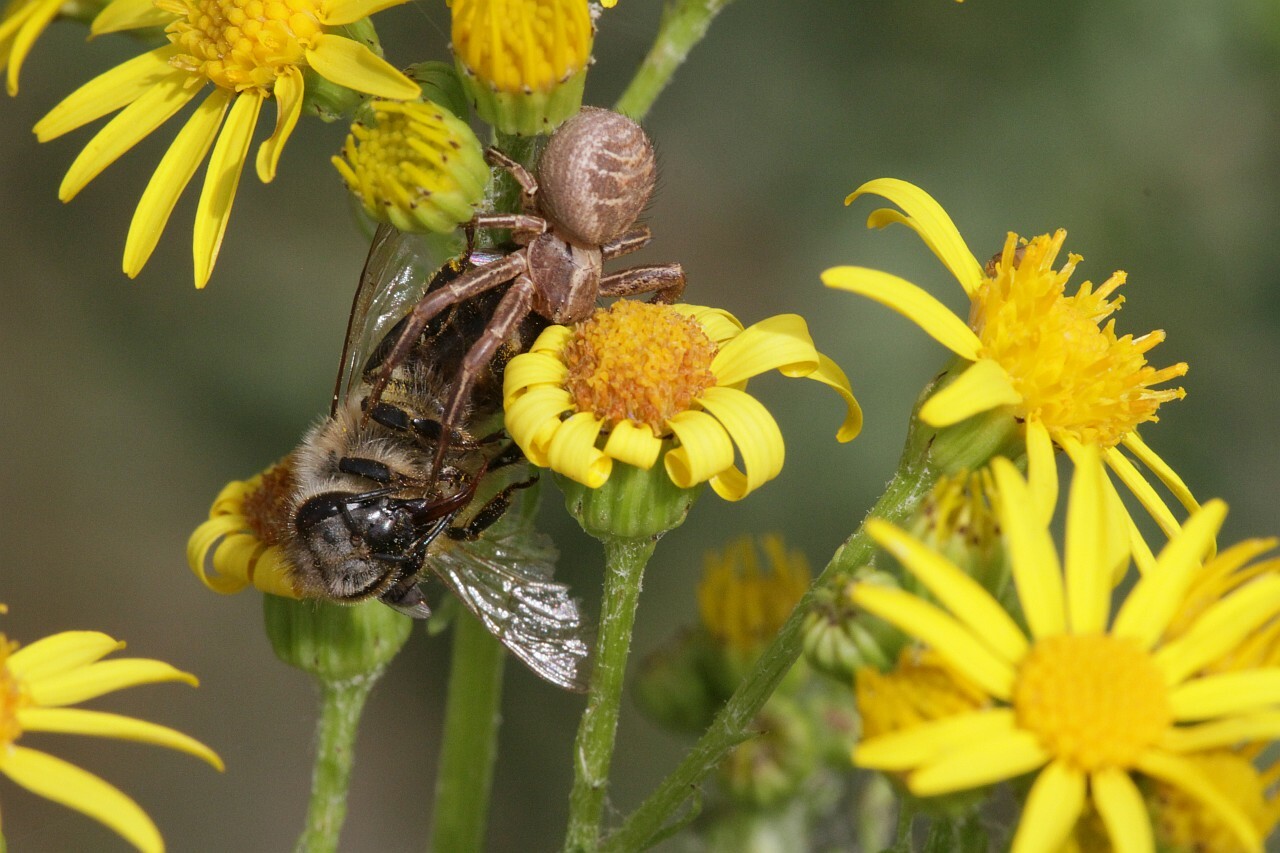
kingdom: Animalia
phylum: Arthropoda
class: Arachnida
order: Araneae
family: Thomisidae
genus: Xysticus
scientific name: Xysticus
